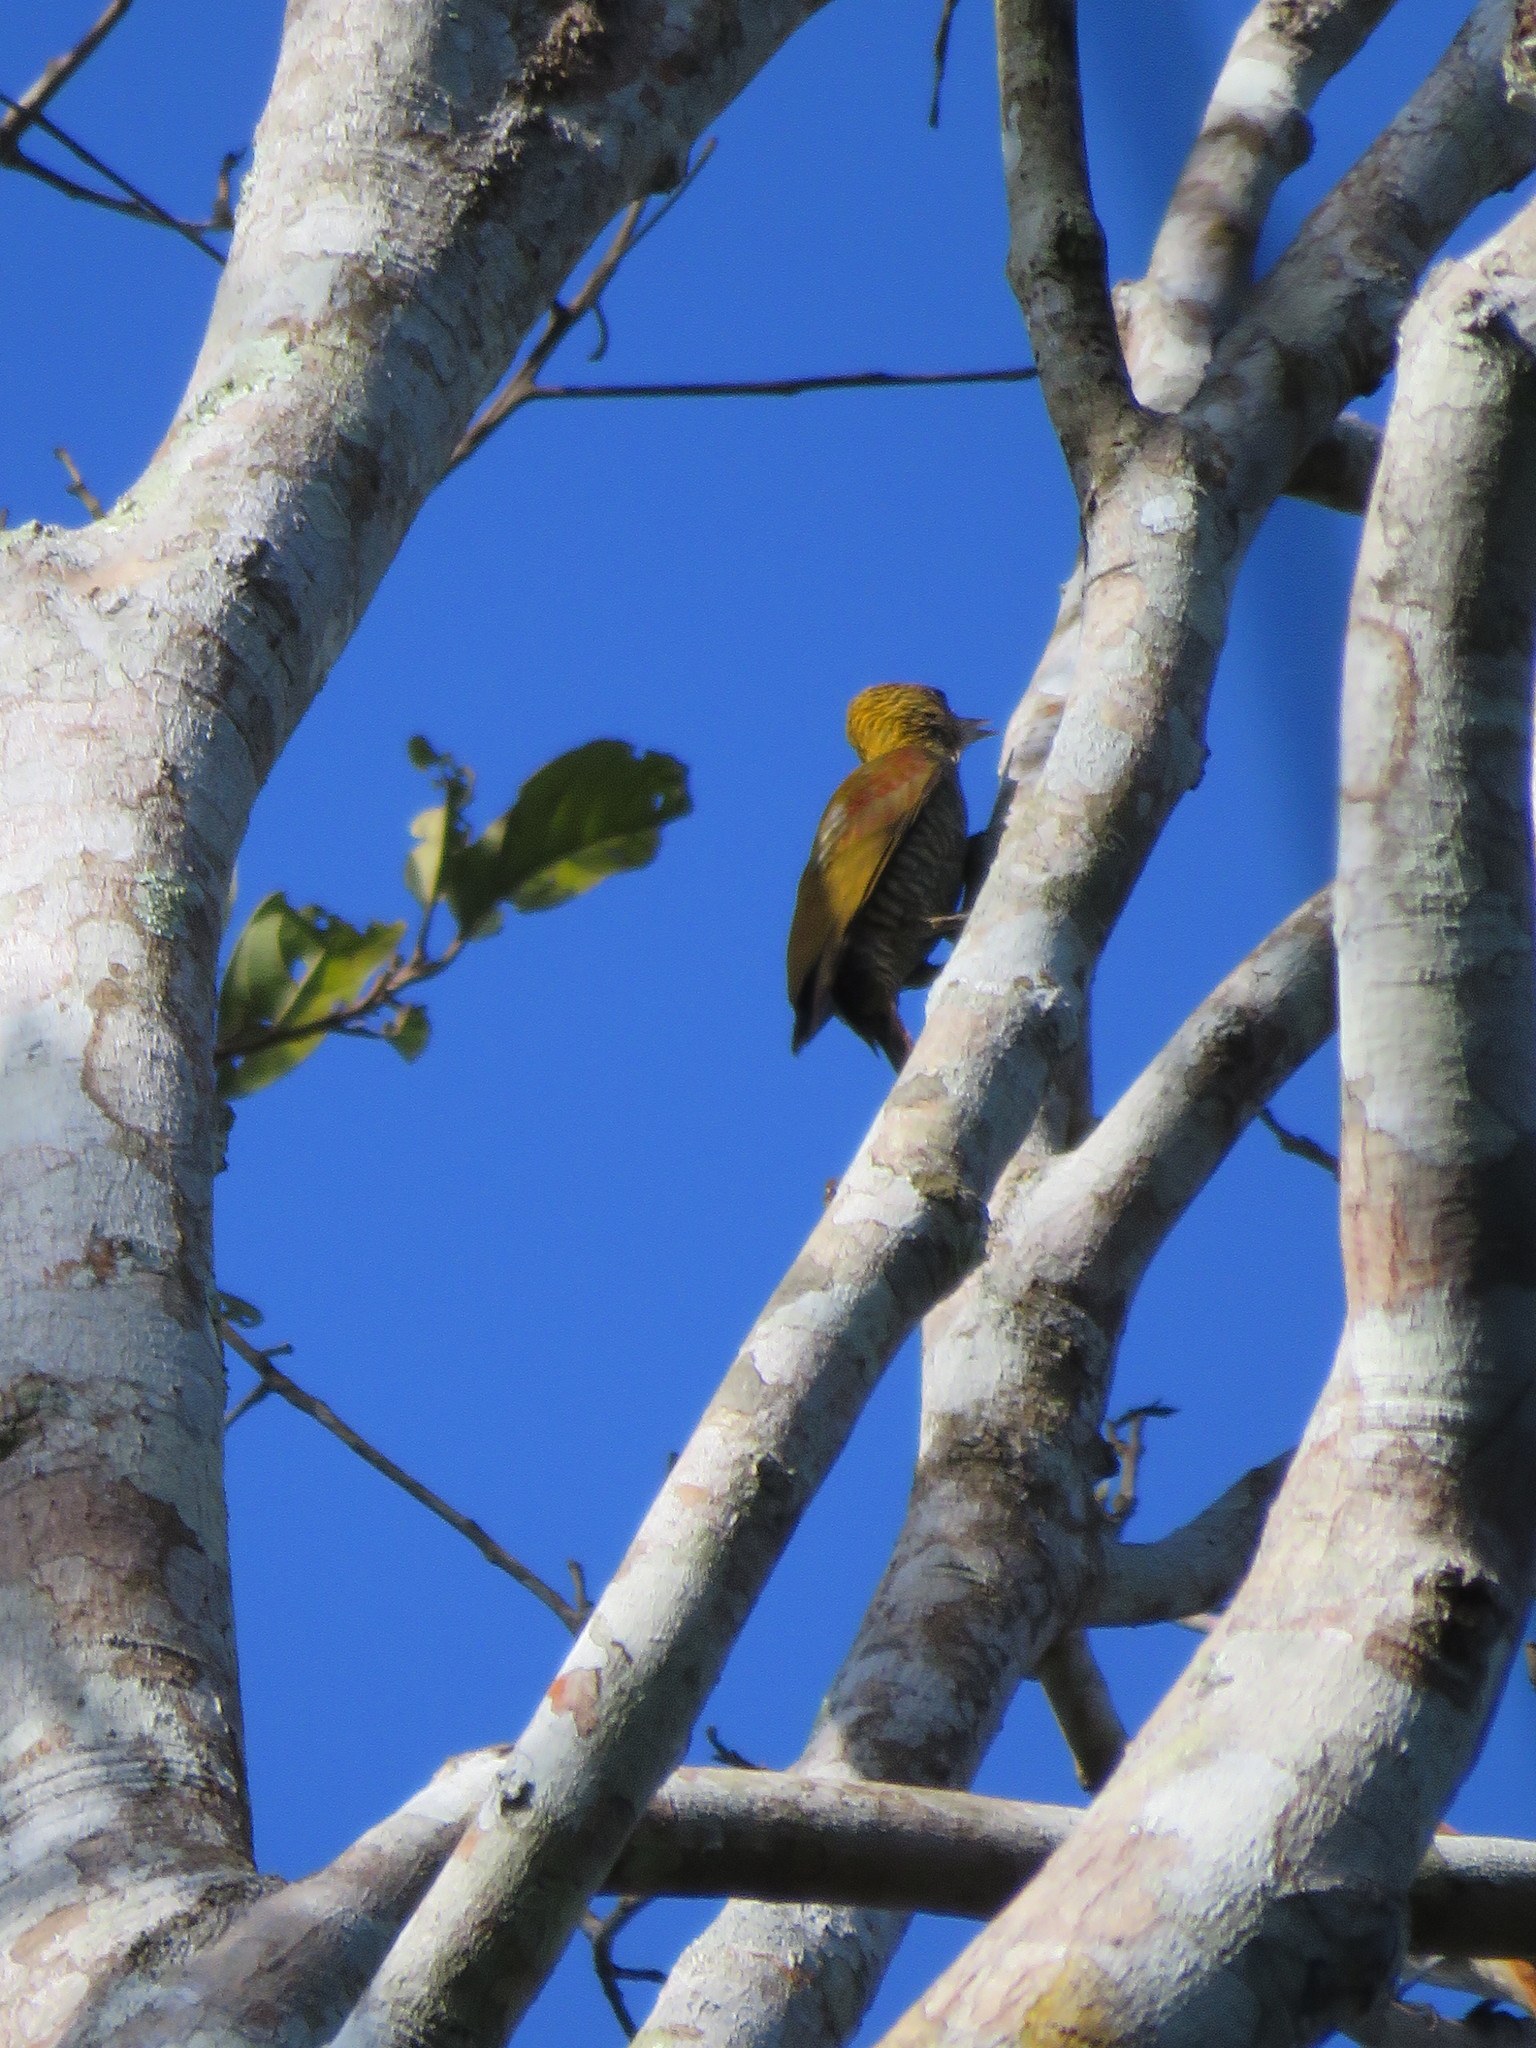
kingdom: Animalia
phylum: Chordata
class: Aves
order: Piciformes
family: Picidae
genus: Veniliornis
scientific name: Veniliornis affinis
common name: Red-stained woodpecker
